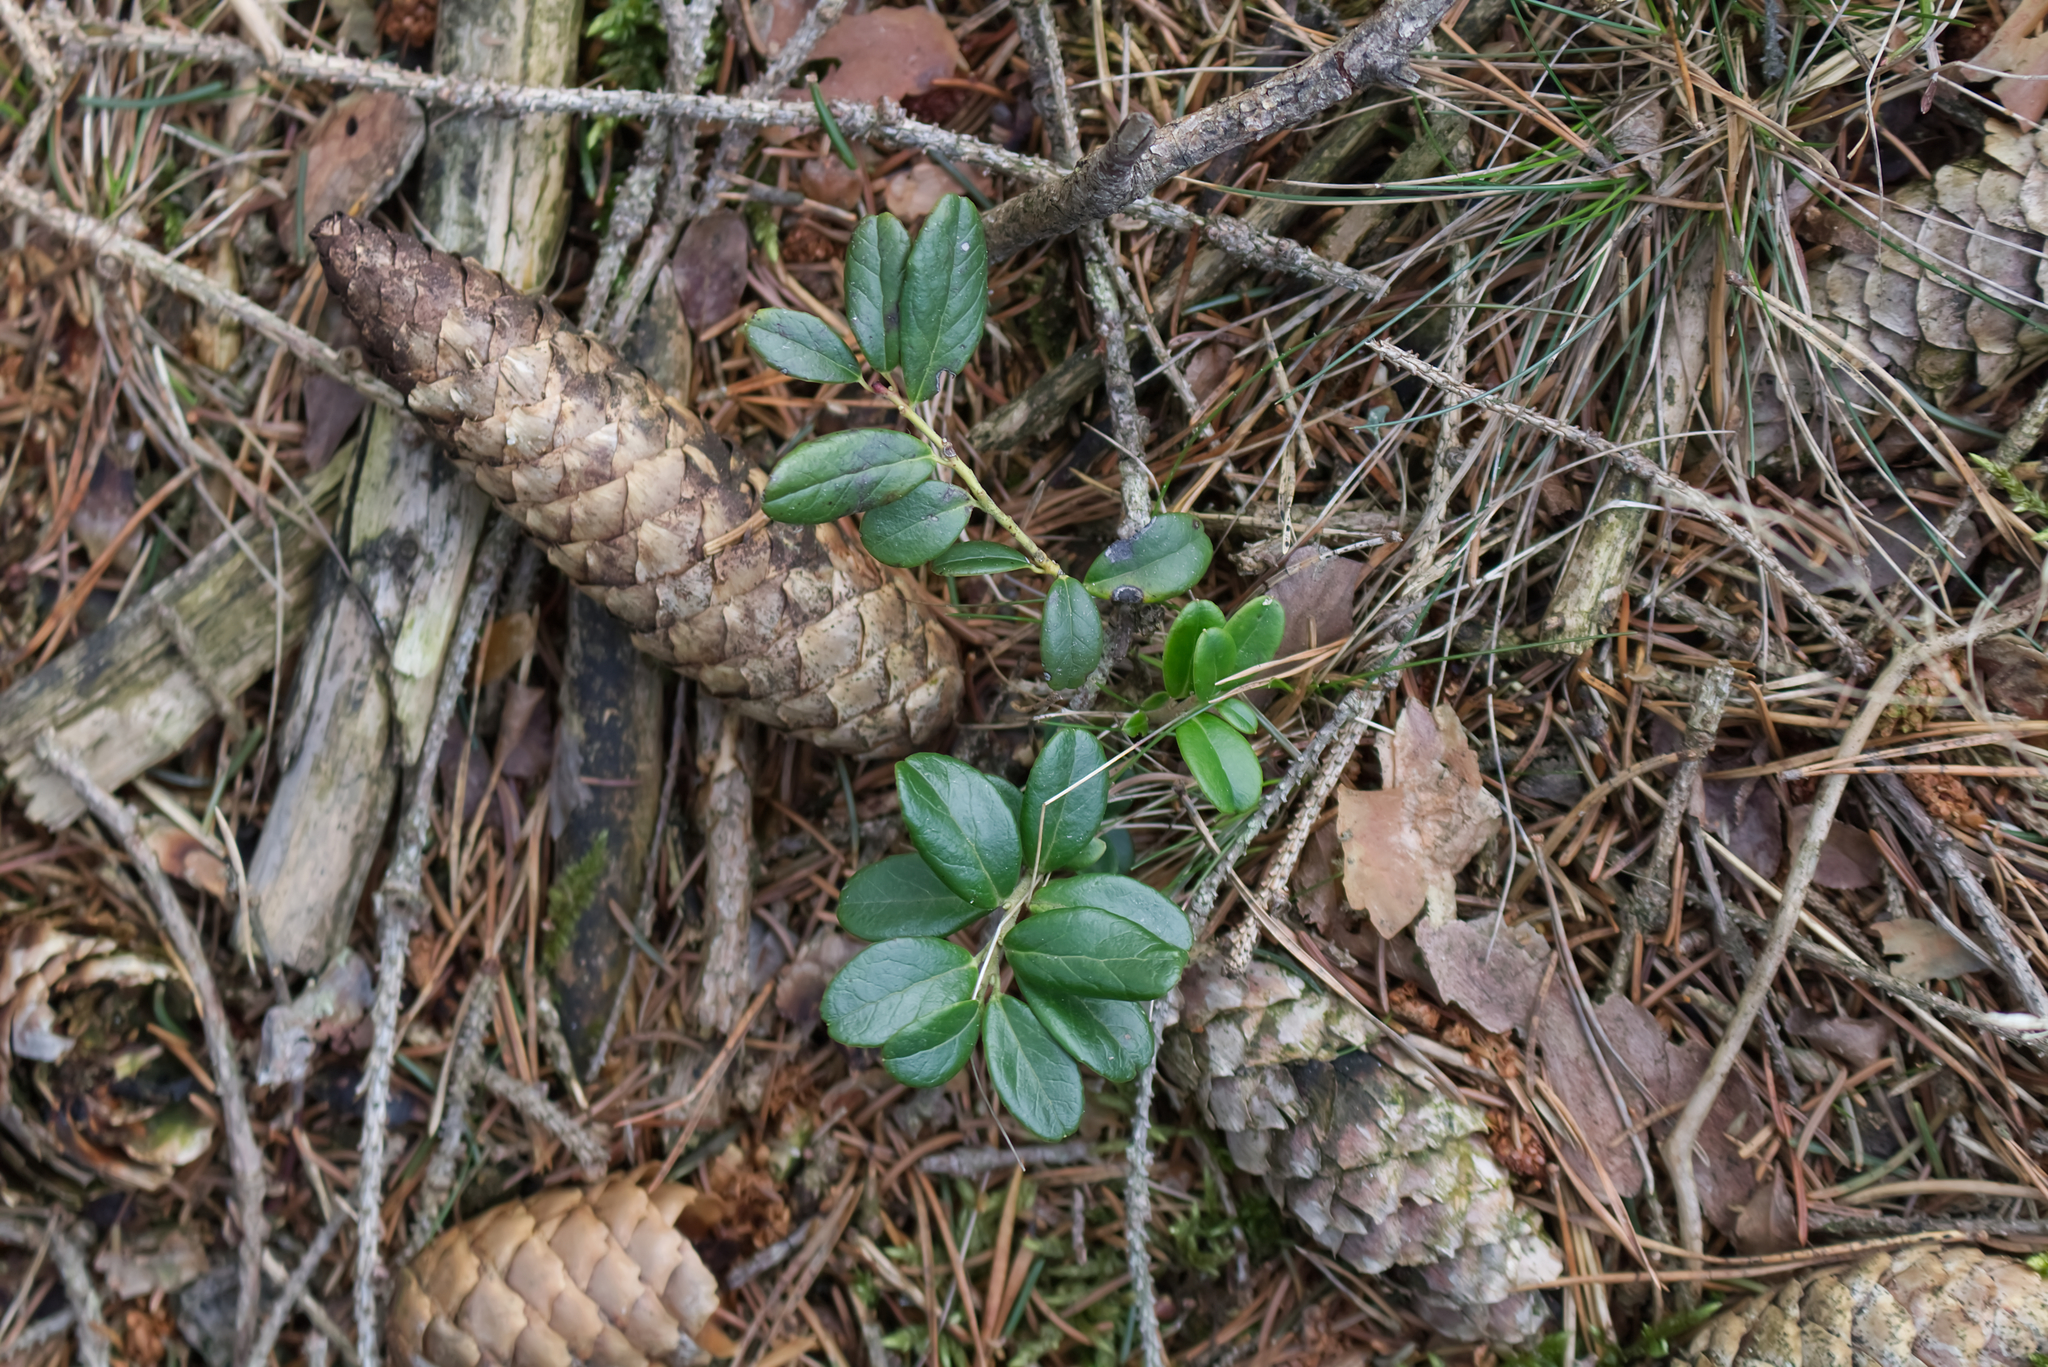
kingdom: Plantae
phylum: Tracheophyta
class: Magnoliopsida
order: Ericales
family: Ericaceae
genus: Vaccinium
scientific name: Vaccinium vitis-idaea
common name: Cowberry
